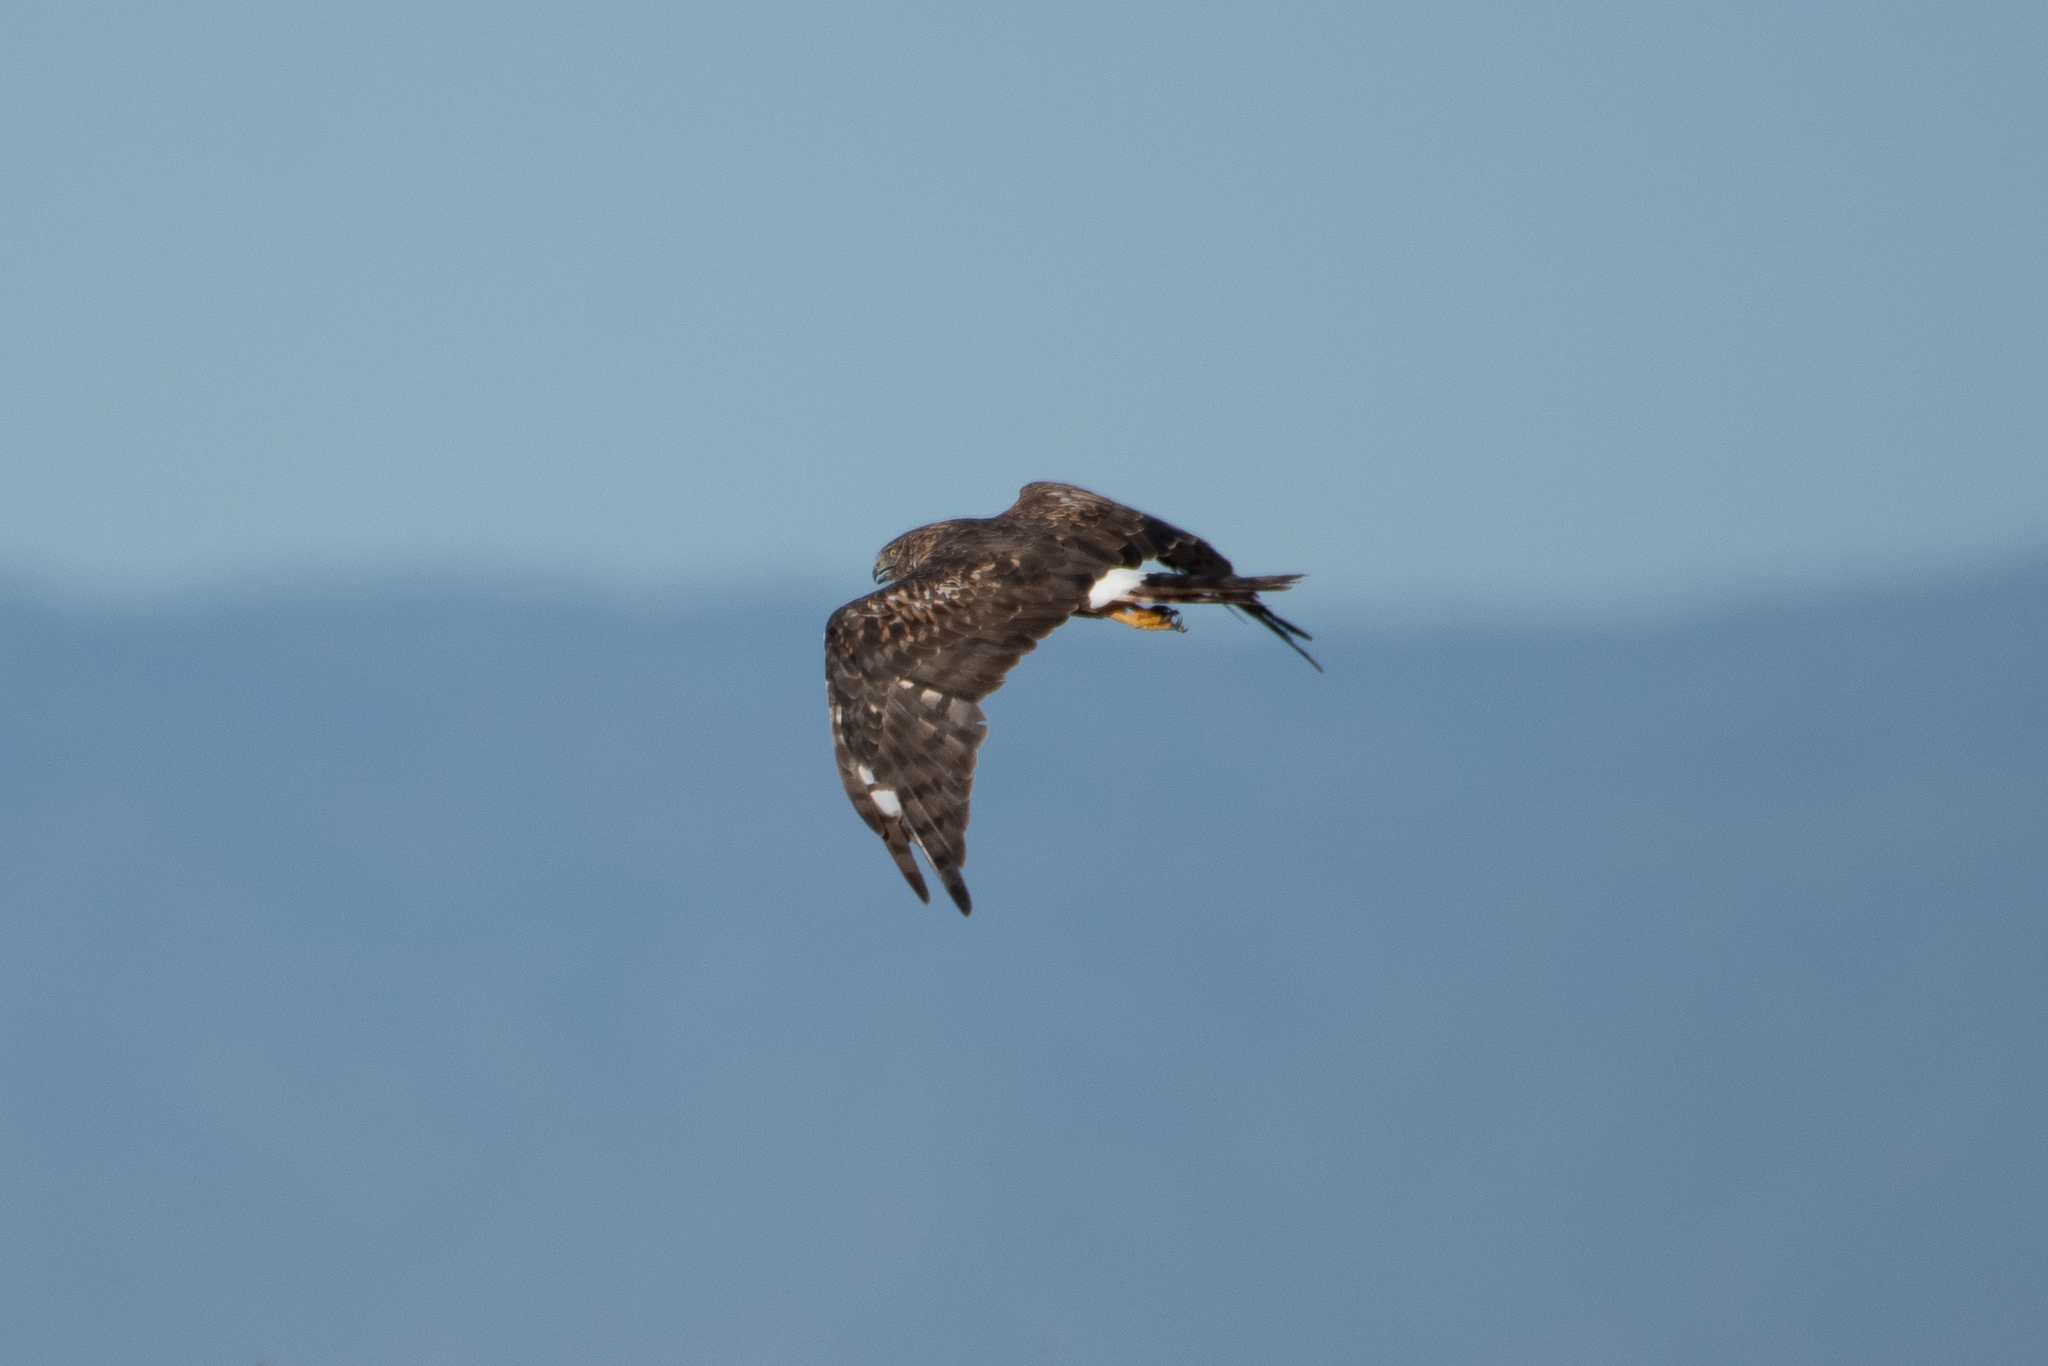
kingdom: Animalia
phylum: Chordata
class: Aves
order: Accipitriformes
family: Accipitridae
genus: Circus
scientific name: Circus cyaneus
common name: Hen harrier
